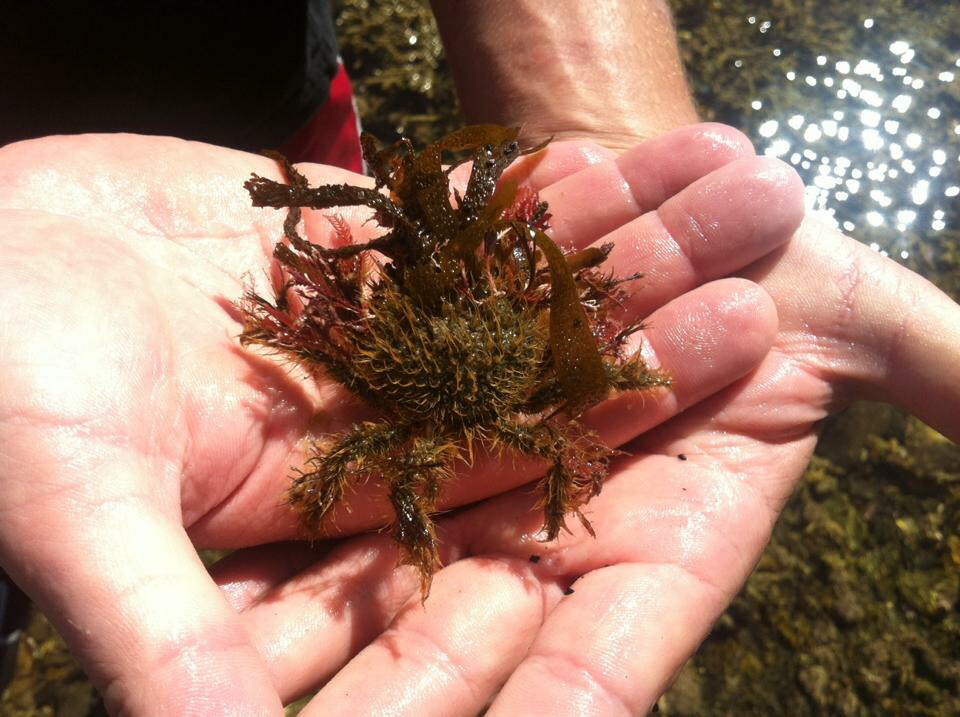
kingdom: Animalia
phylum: Arthropoda
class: Malacostraca
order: Decapoda
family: Majidae
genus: Notomithrax
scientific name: Notomithrax ursus
